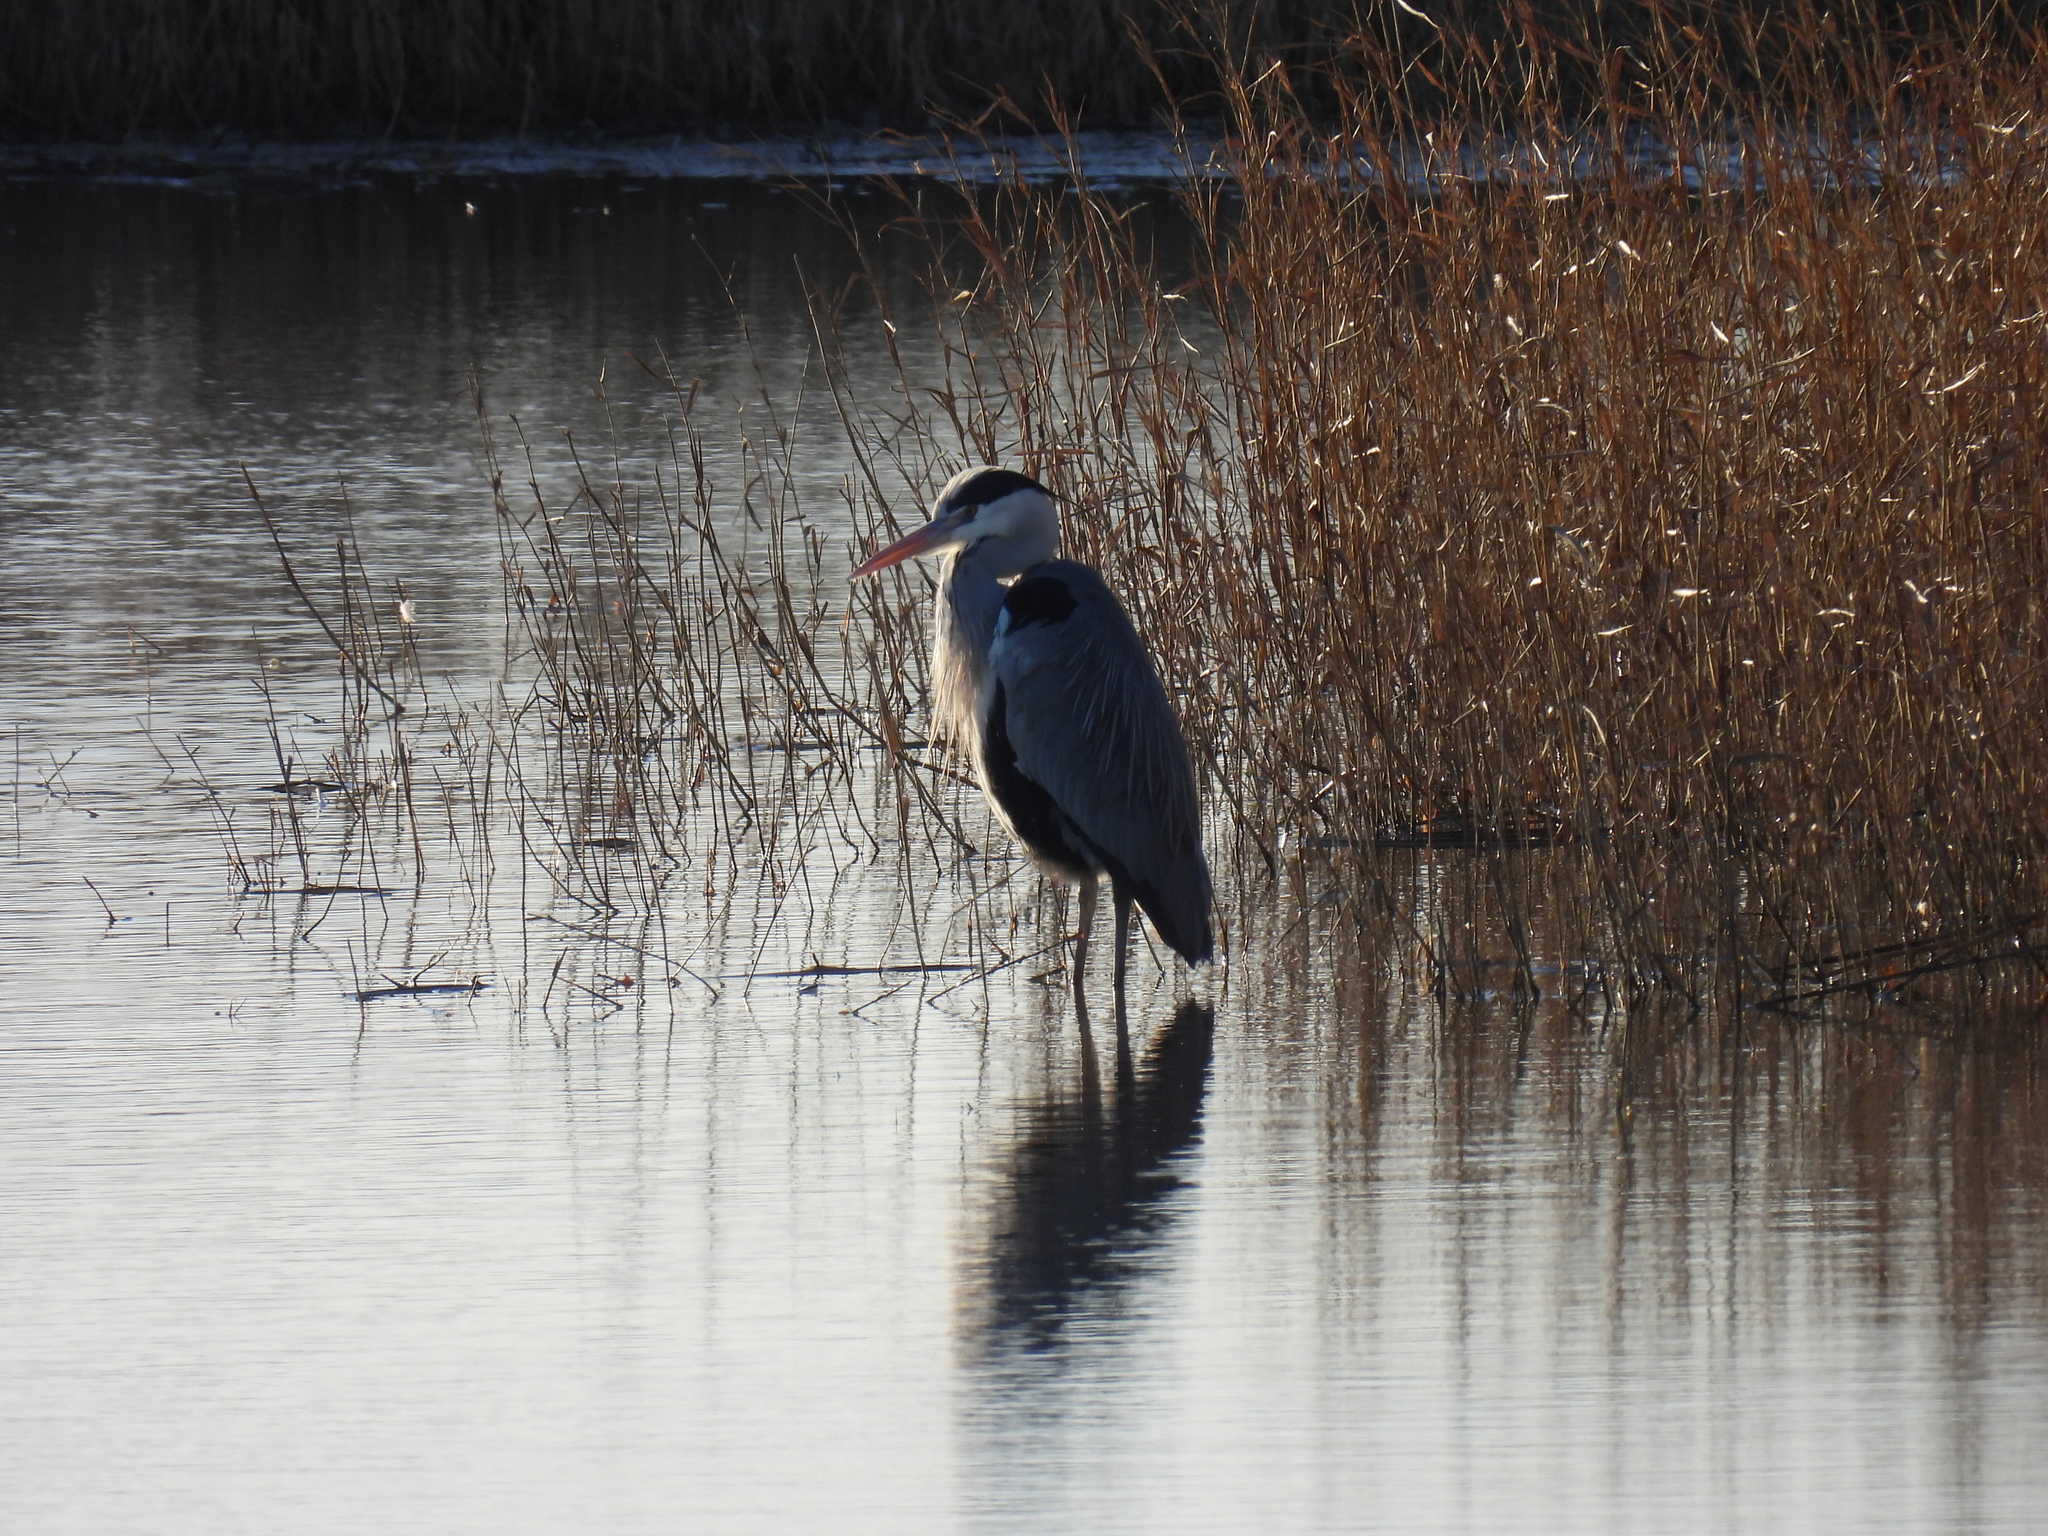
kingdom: Animalia
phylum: Chordata
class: Aves
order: Pelecaniformes
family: Ardeidae
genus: Ardea
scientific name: Ardea cinerea
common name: Grey heron
